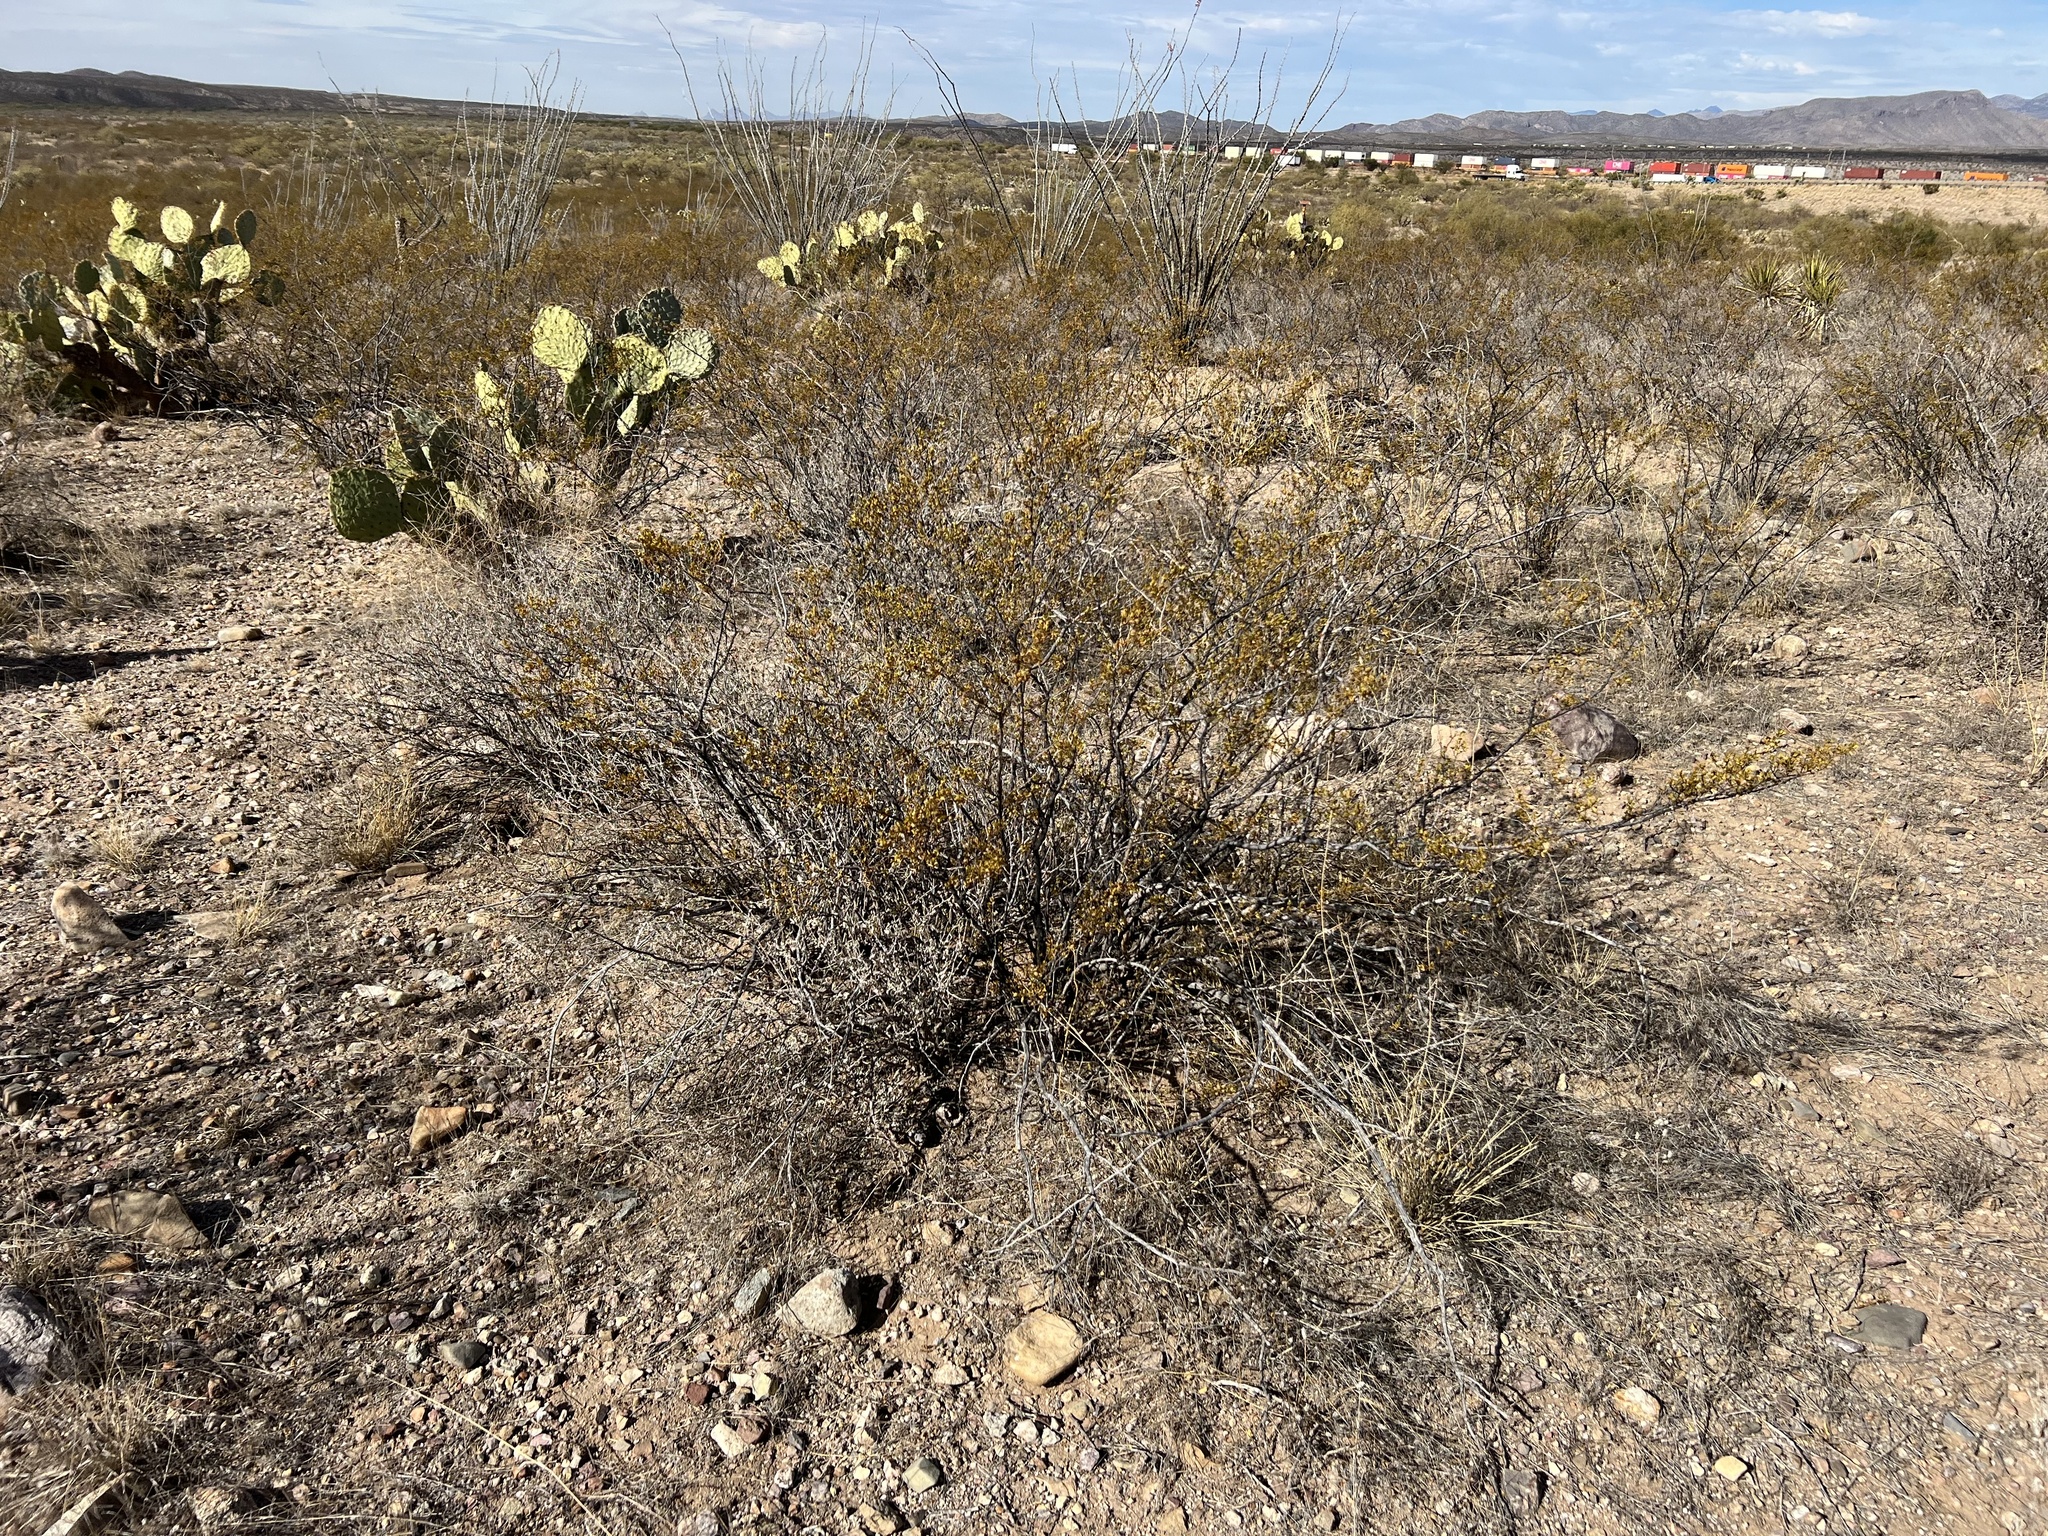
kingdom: Plantae
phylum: Tracheophyta
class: Magnoliopsida
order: Zygophyllales
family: Zygophyllaceae
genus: Larrea
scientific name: Larrea tridentata
